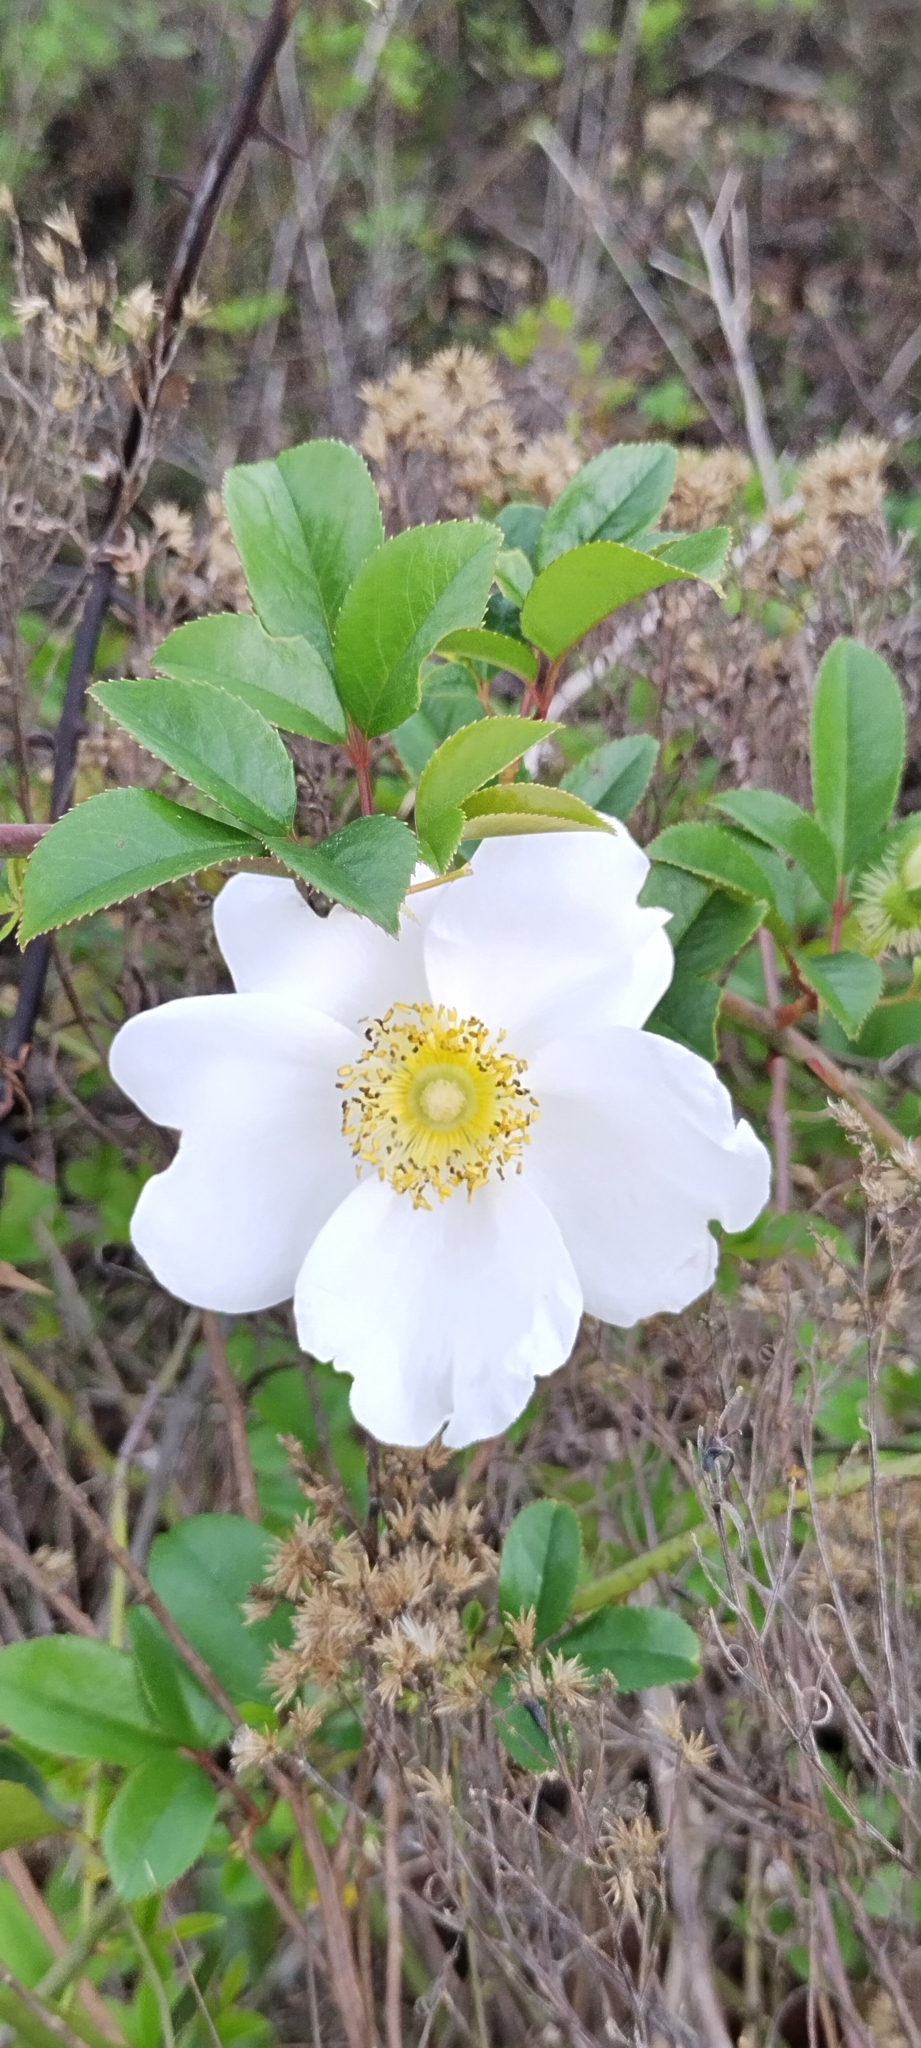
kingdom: Plantae
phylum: Tracheophyta
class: Magnoliopsida
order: Rosales
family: Rosaceae
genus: Rosa
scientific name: Rosa laevigata
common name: Cherokee rose
